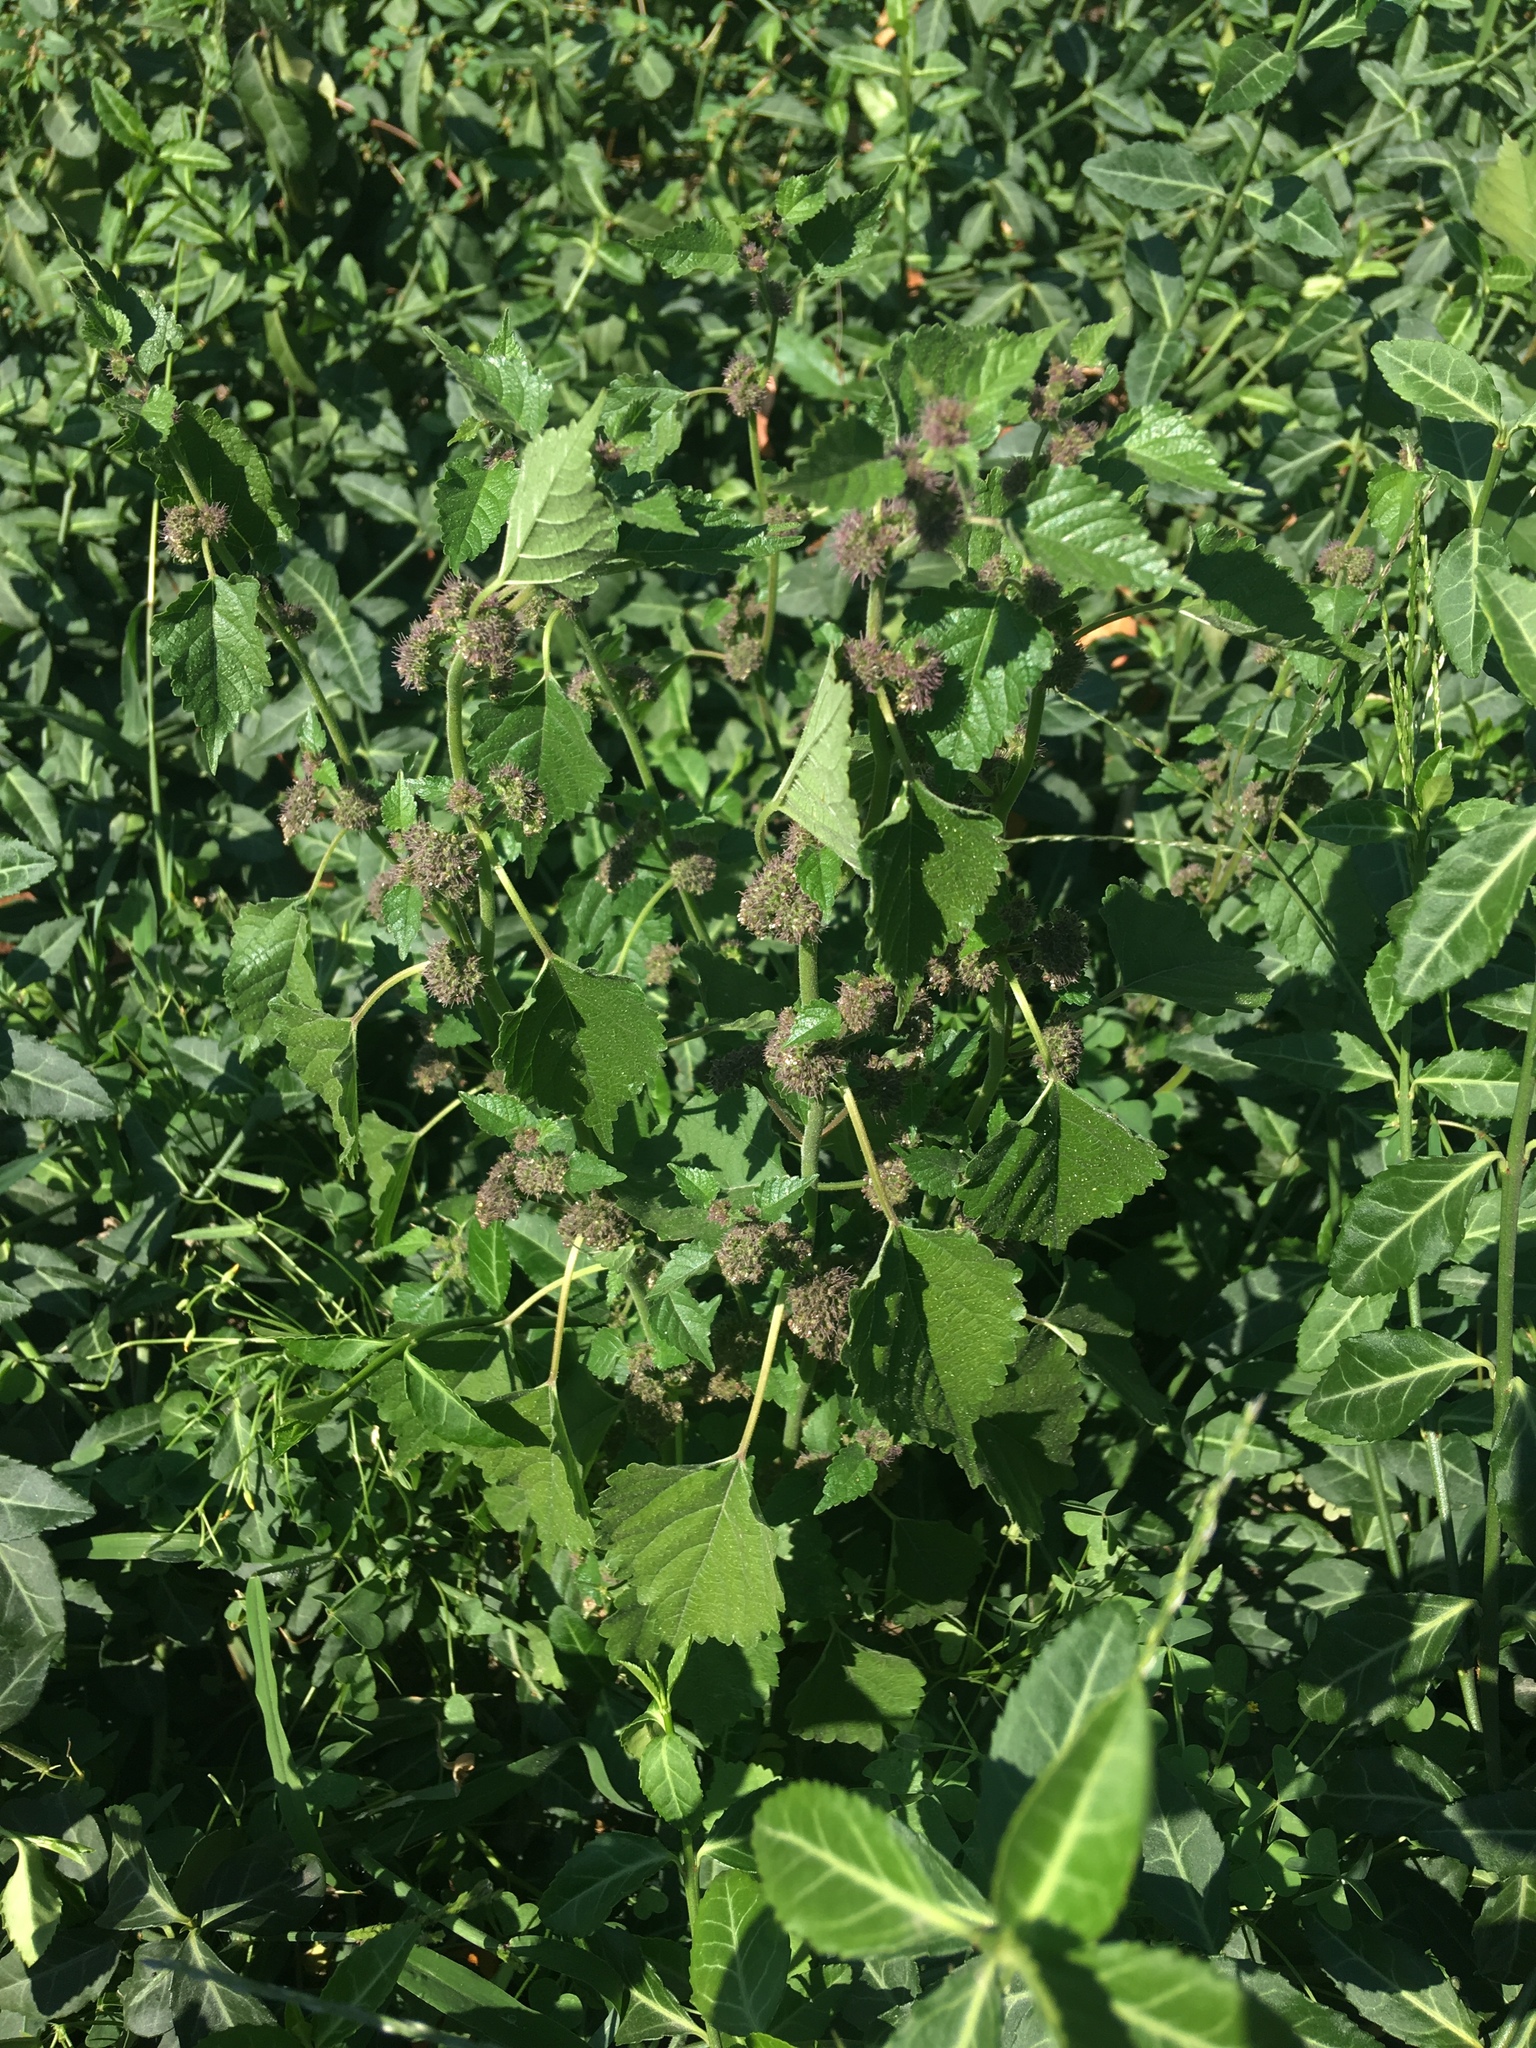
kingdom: Plantae
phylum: Tracheophyta
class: Magnoliopsida
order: Rosales
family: Moraceae
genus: Fatoua
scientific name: Fatoua villosa
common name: Hairy crabweed
